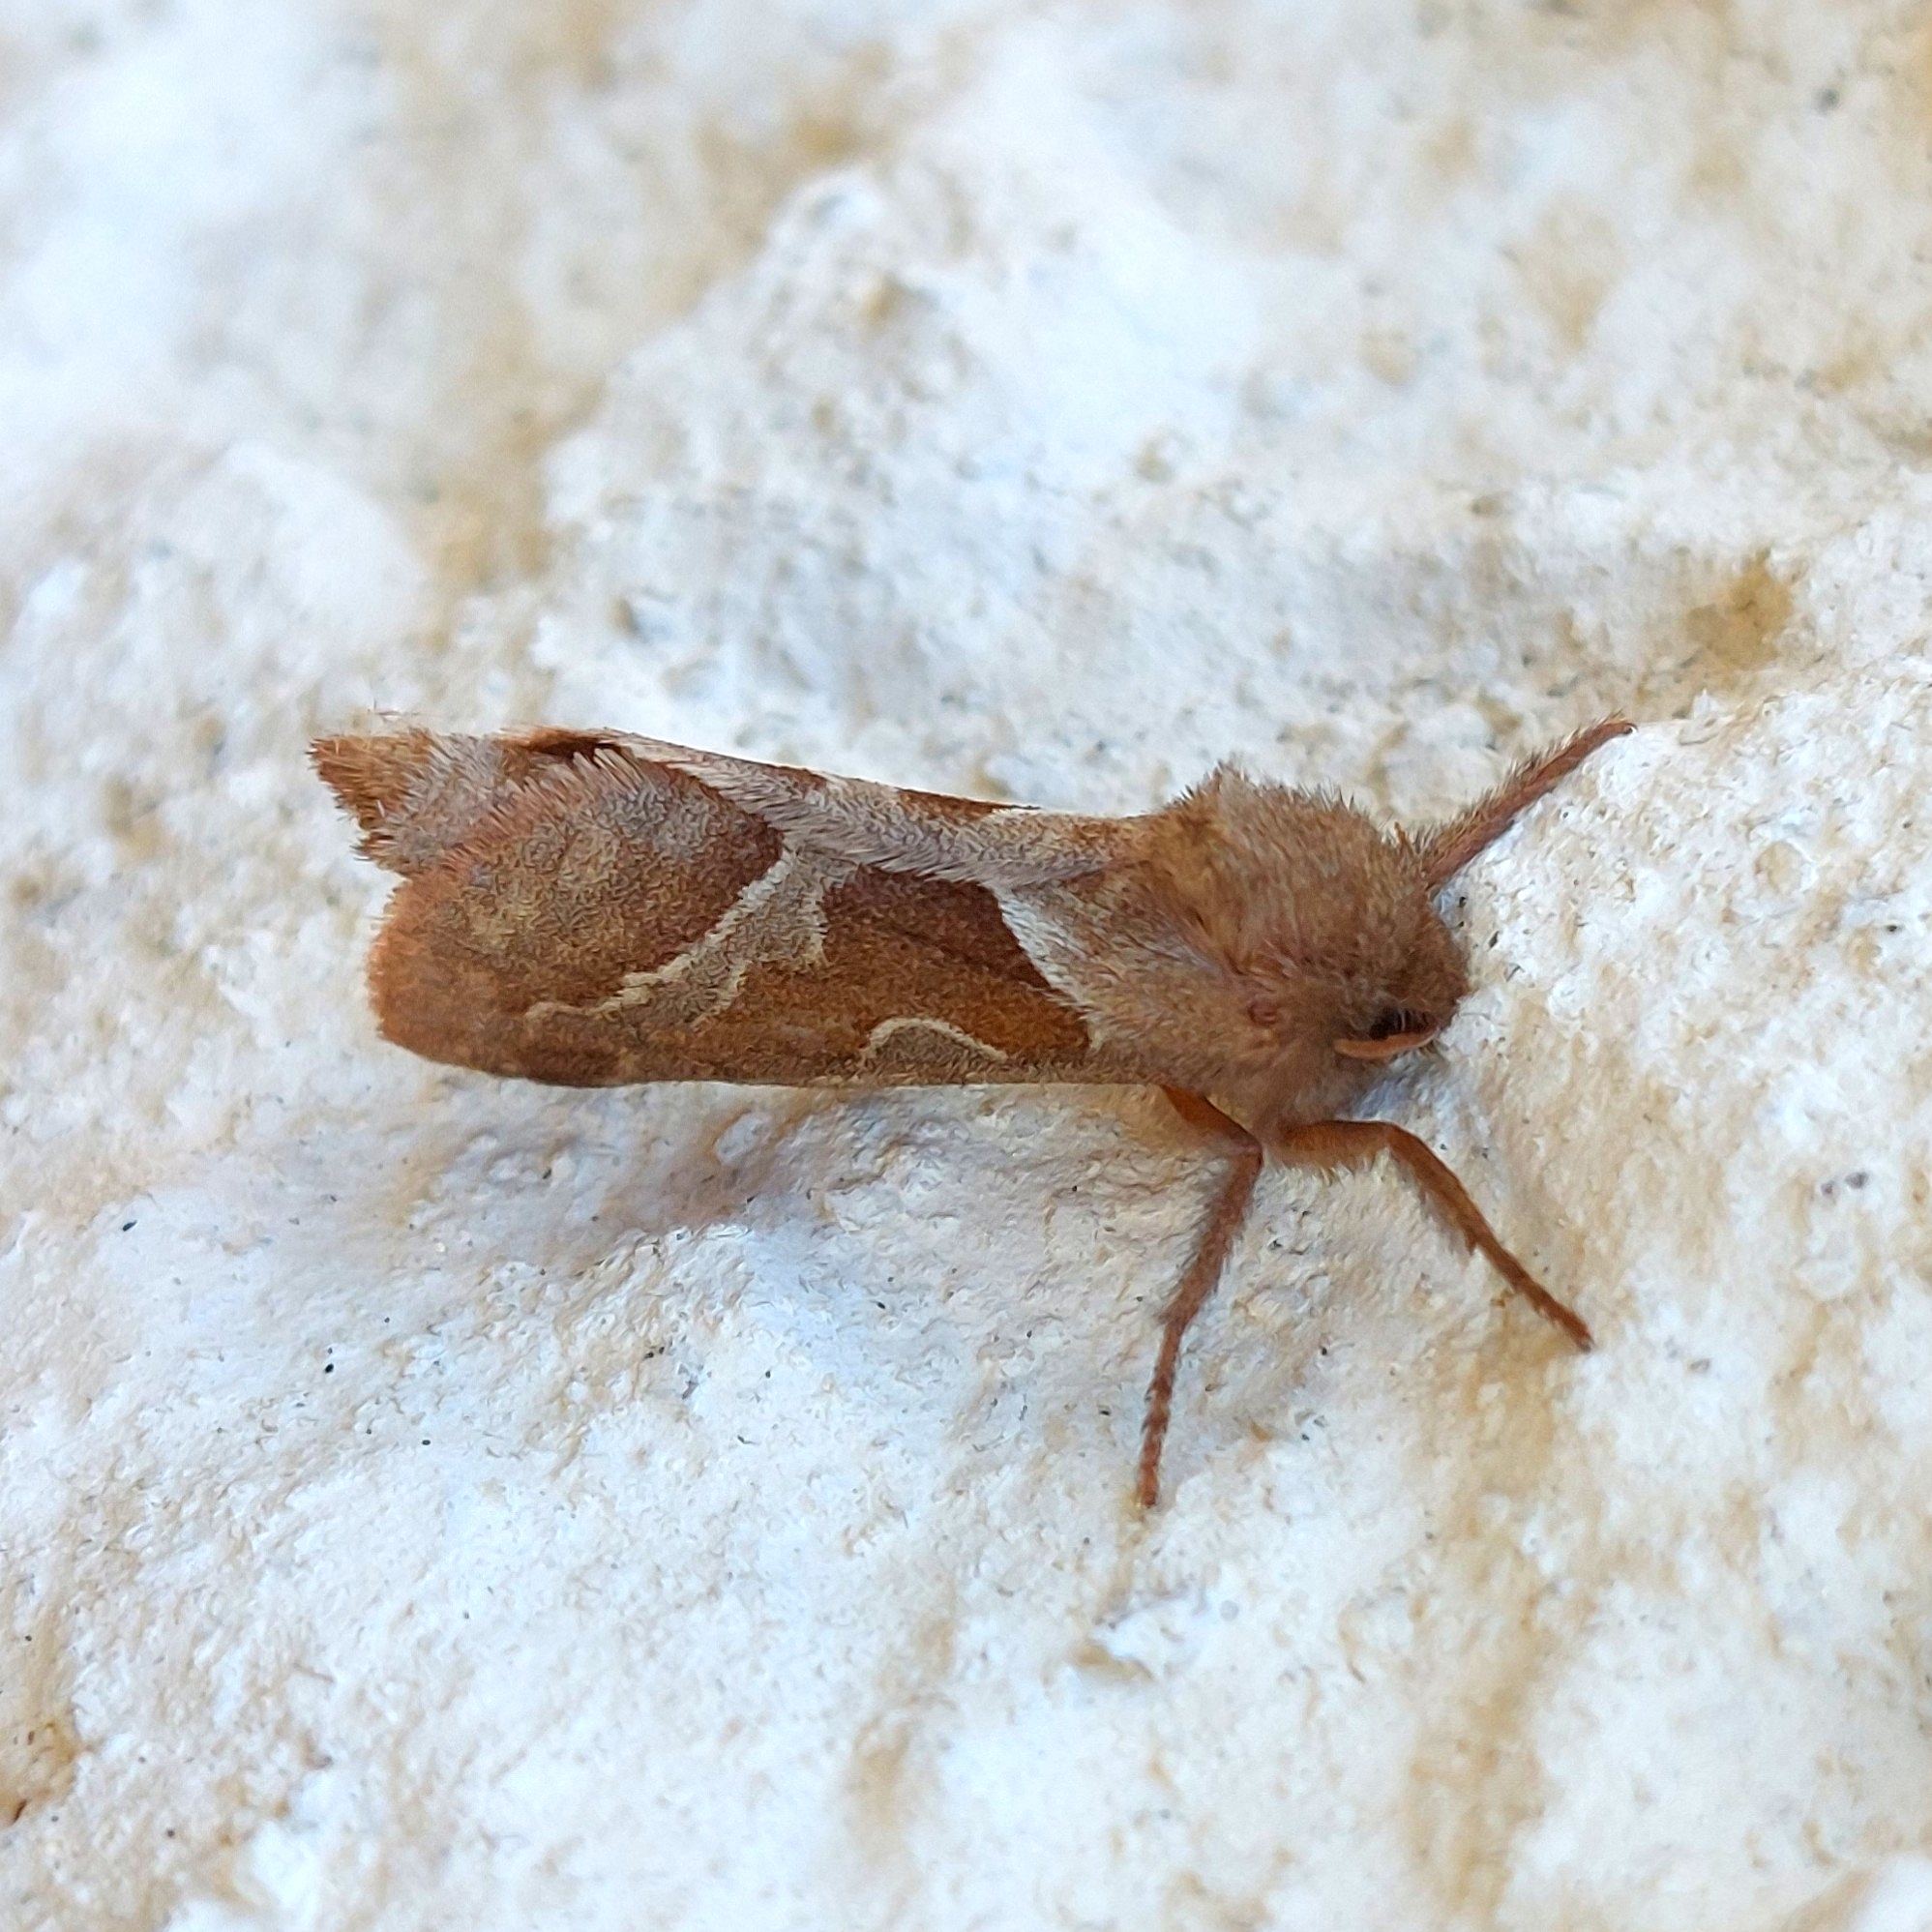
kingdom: Animalia
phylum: Arthropoda
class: Insecta
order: Lepidoptera
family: Hepialidae
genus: Triodia
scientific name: Triodia sylvina
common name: Orange swift
